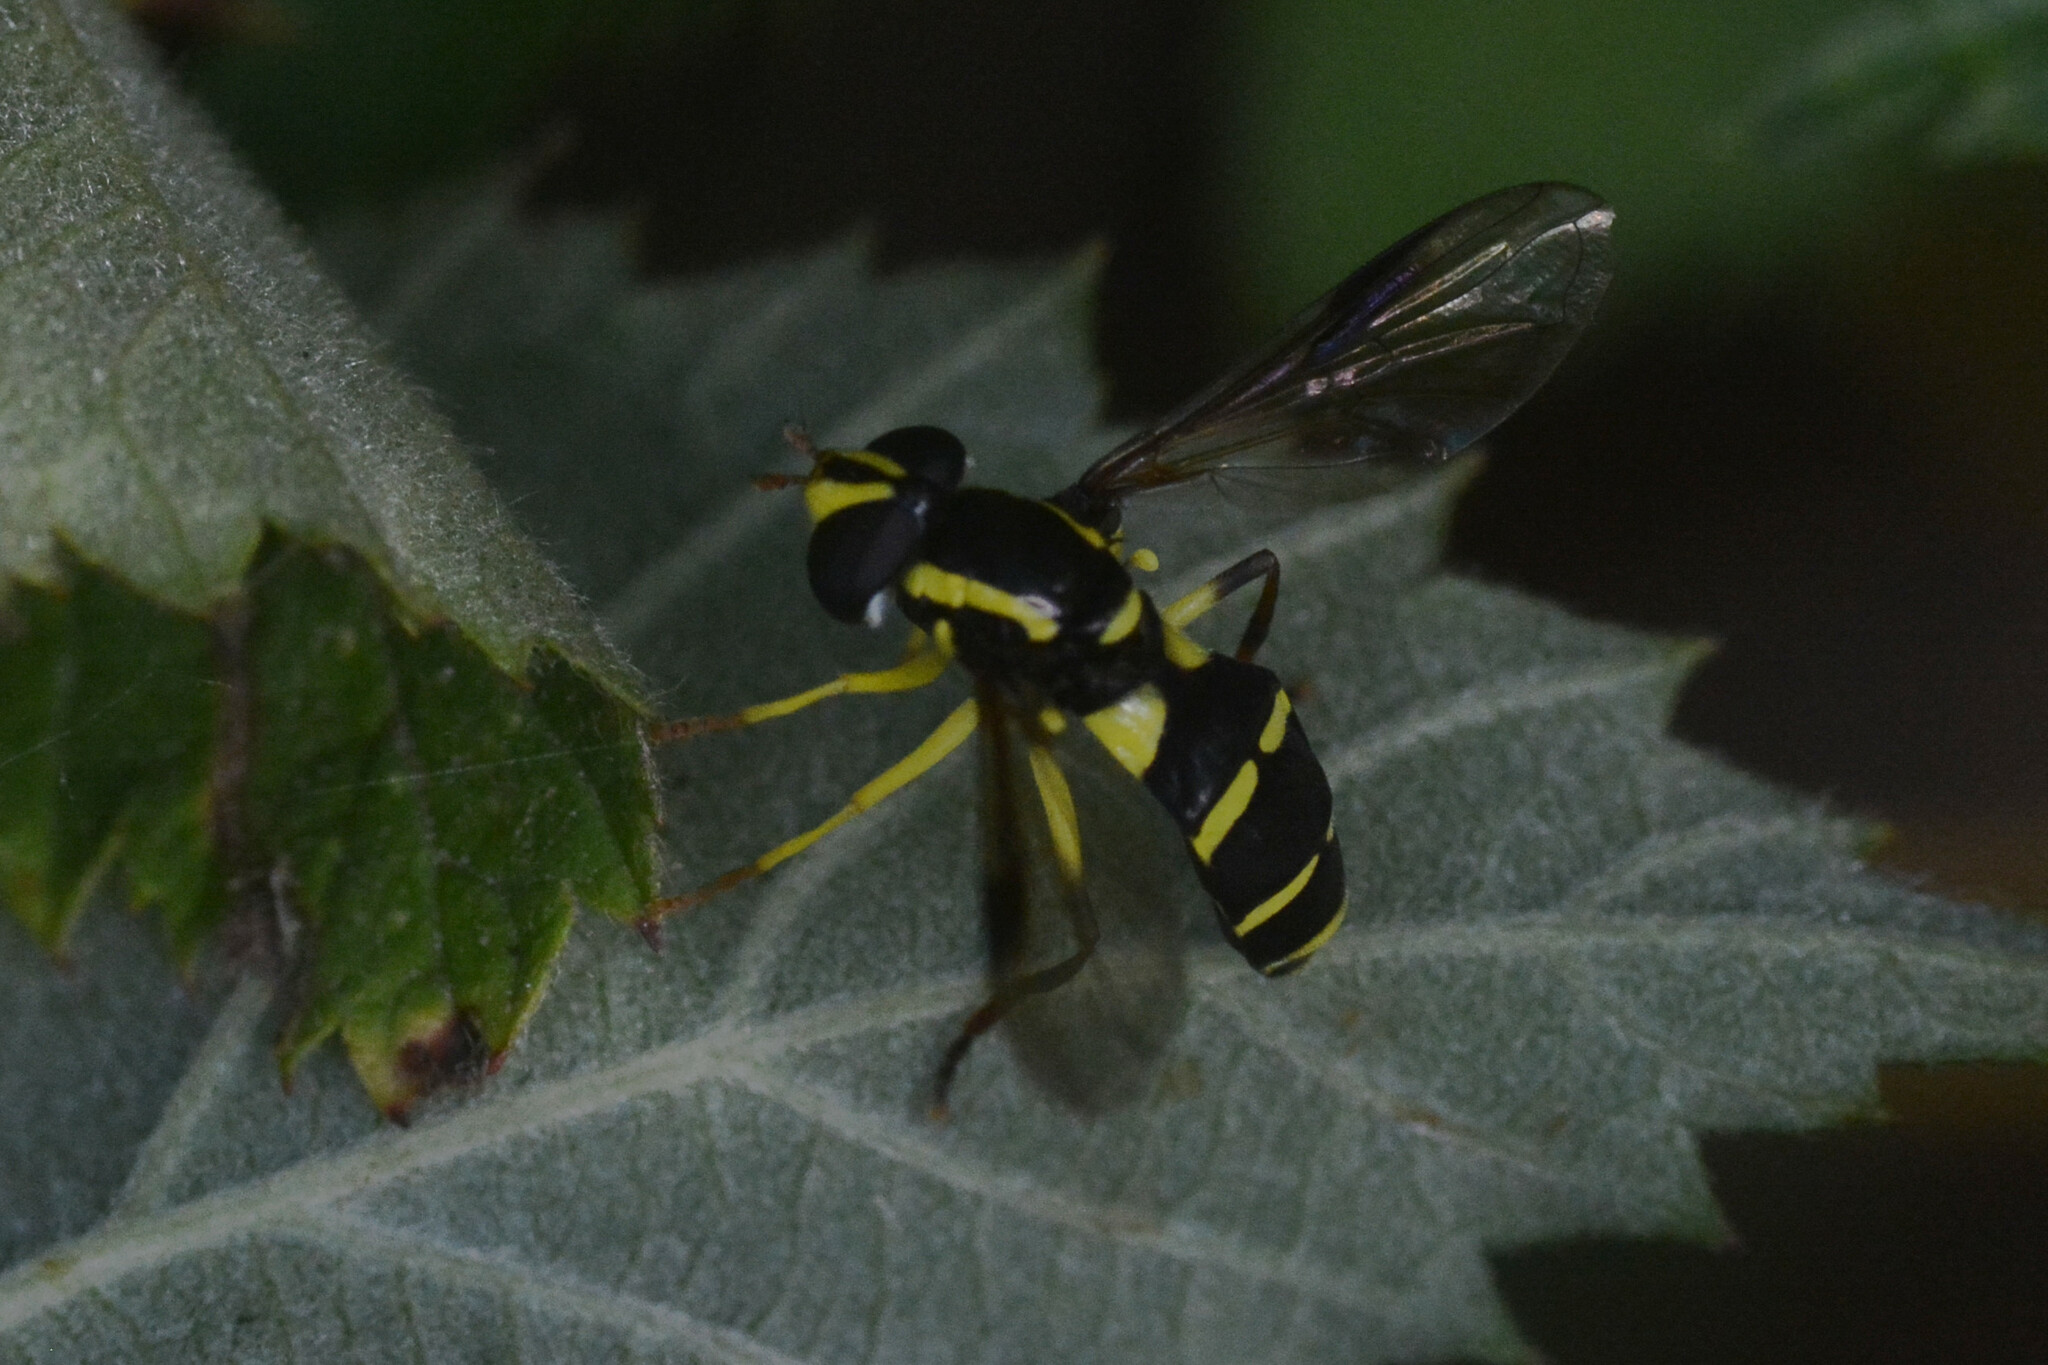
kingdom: Animalia
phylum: Arthropoda
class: Insecta
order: Diptera
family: Syrphidae
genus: Philhelius
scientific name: Philhelius pedissequum
